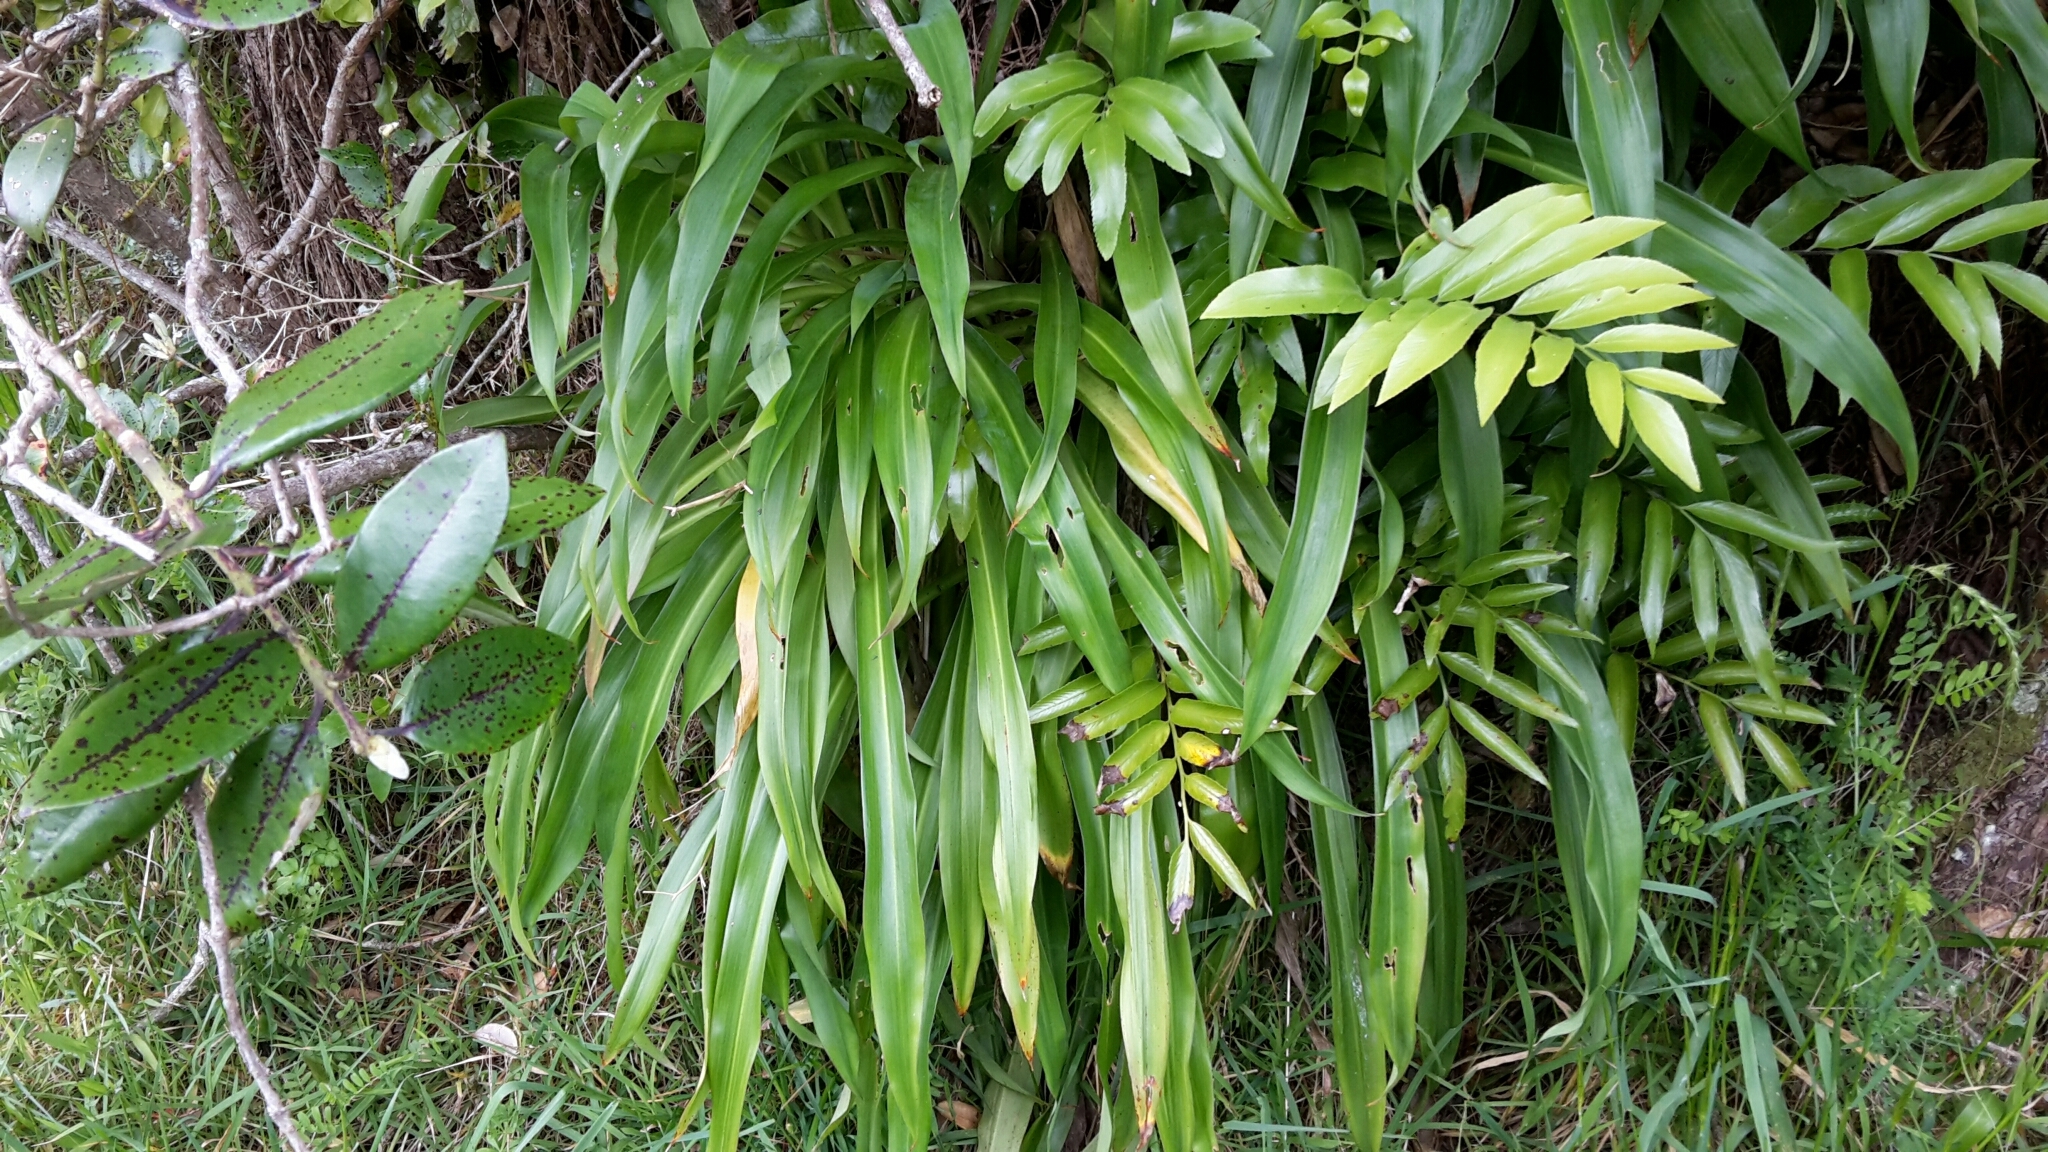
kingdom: Plantae
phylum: Tracheophyta
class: Liliopsida
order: Asparagales
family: Asparagaceae
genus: Arthropodium
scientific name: Arthropodium cirratum
